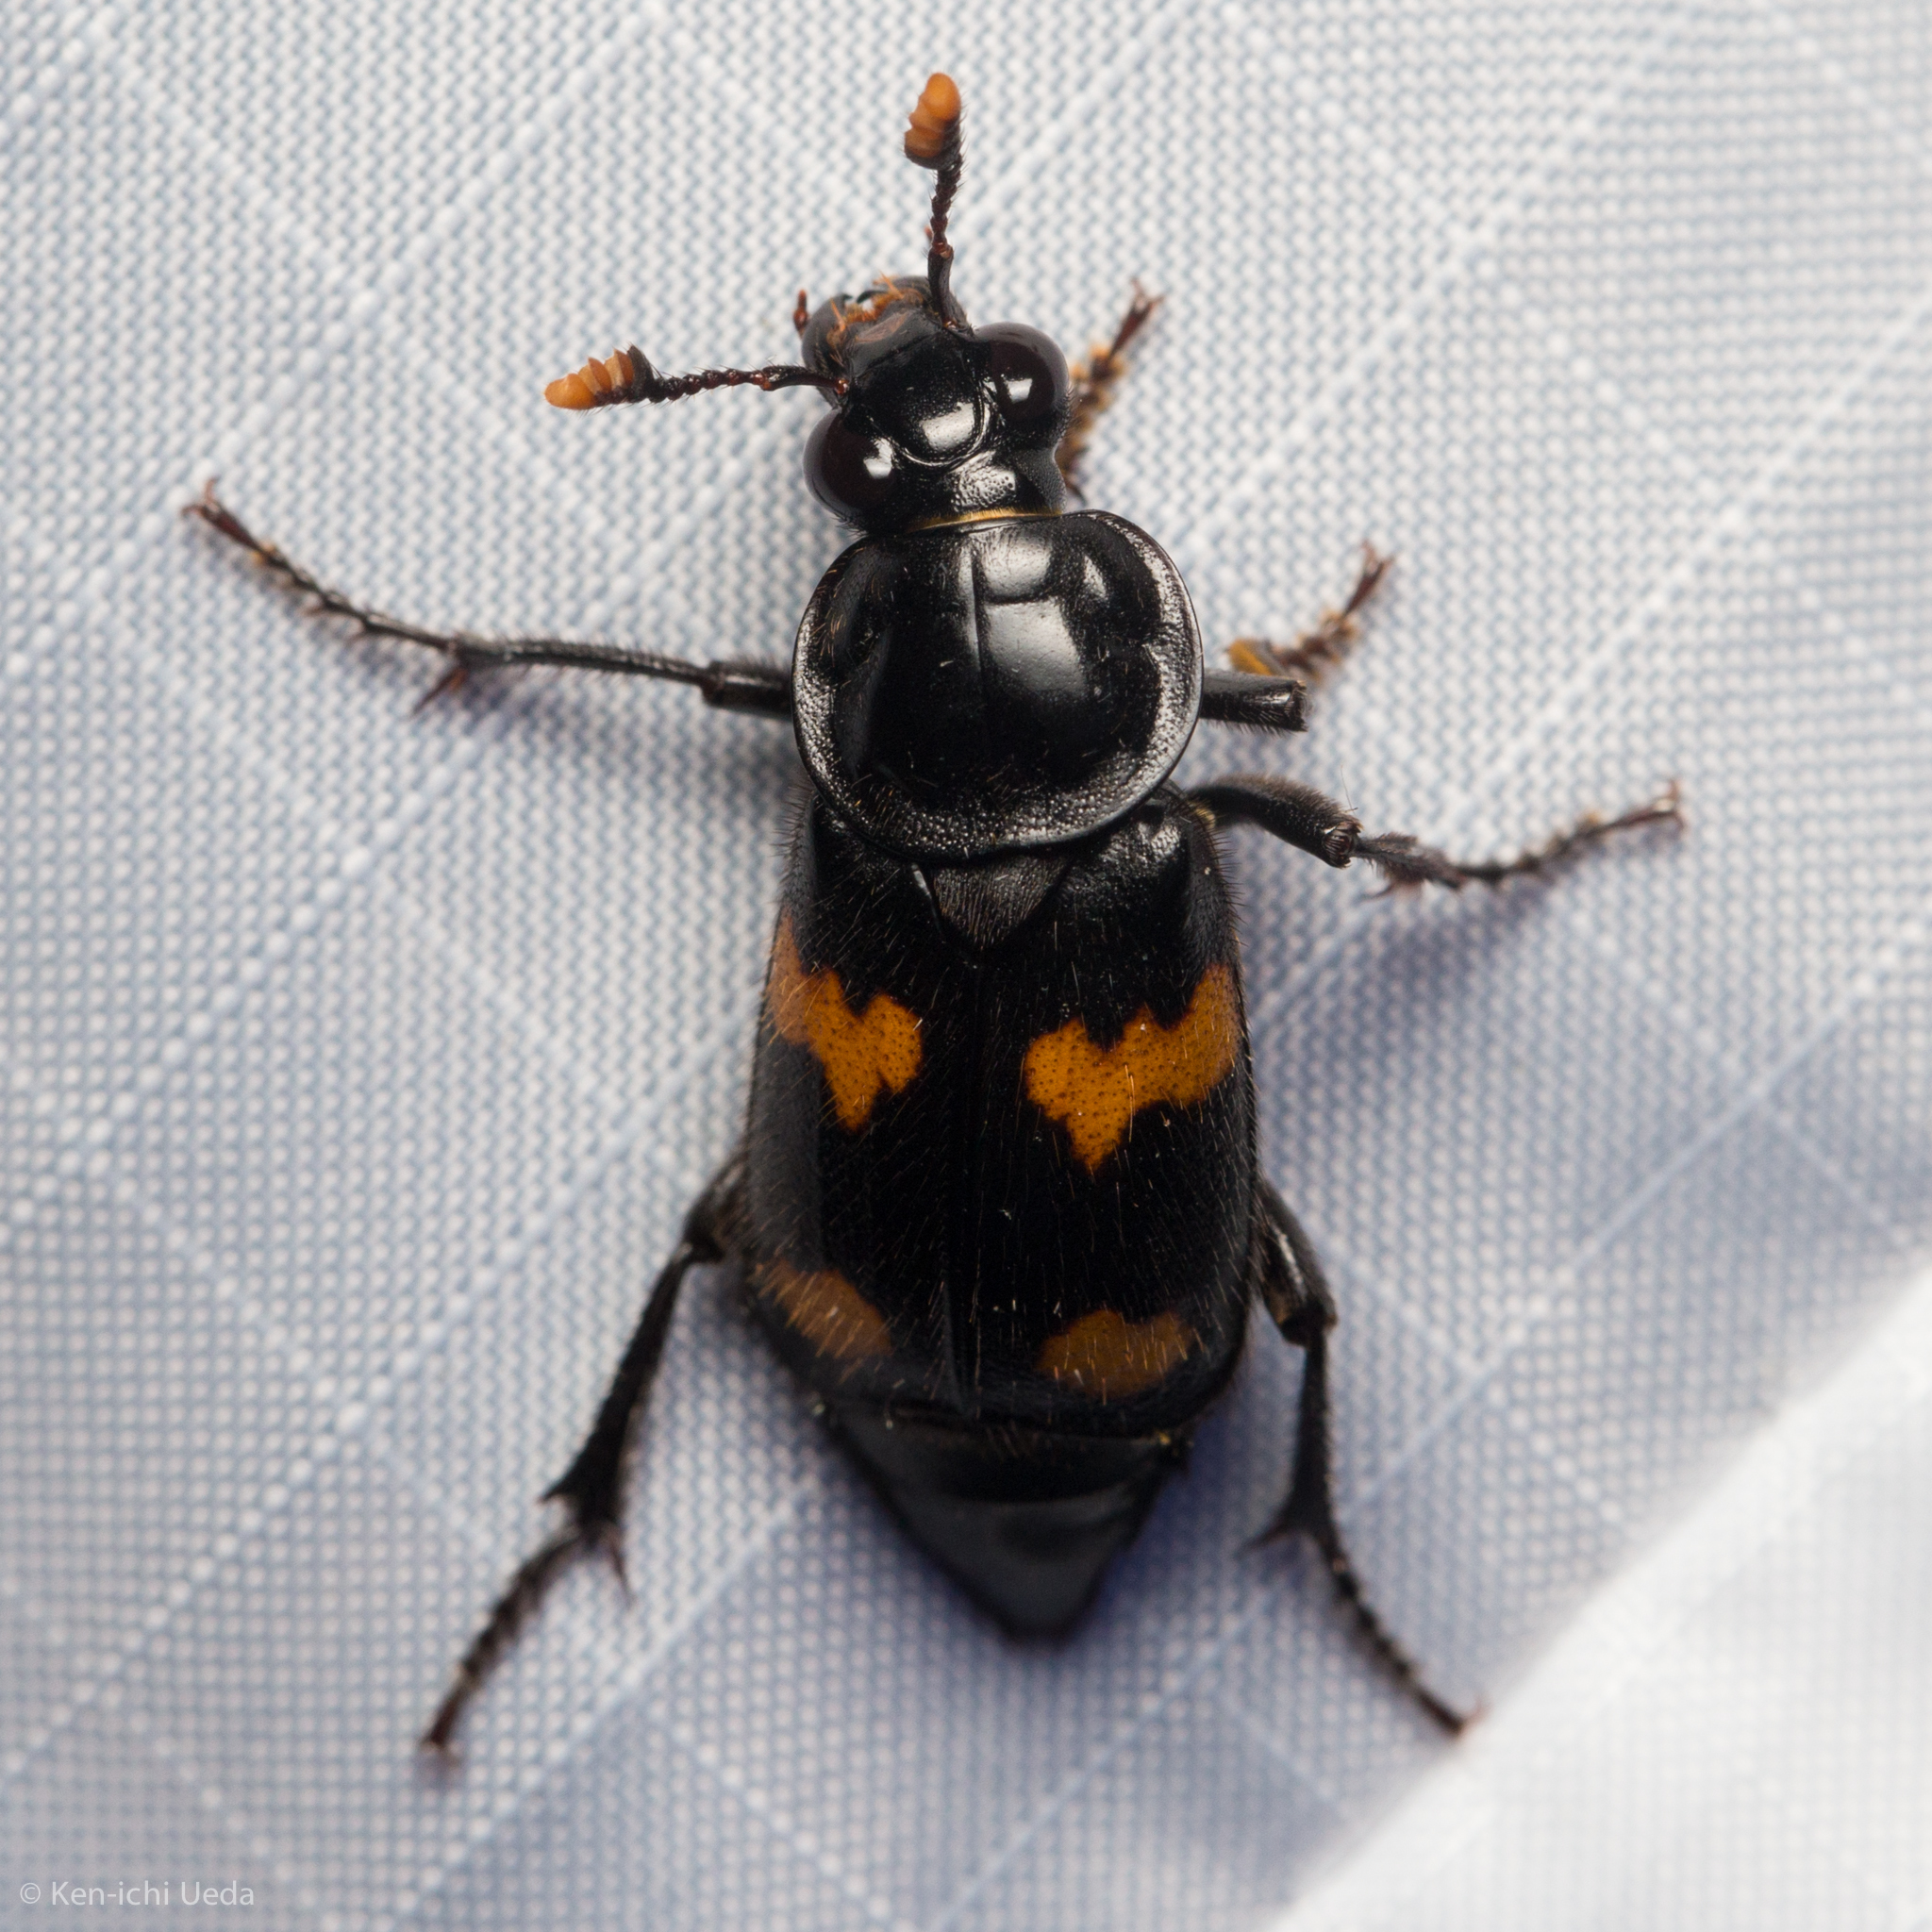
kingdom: Animalia
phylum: Arthropoda
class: Insecta
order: Coleoptera
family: Staphylinidae
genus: Nicrophorus
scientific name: Nicrophorus orbicollis
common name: Roundneck sexton beetle
